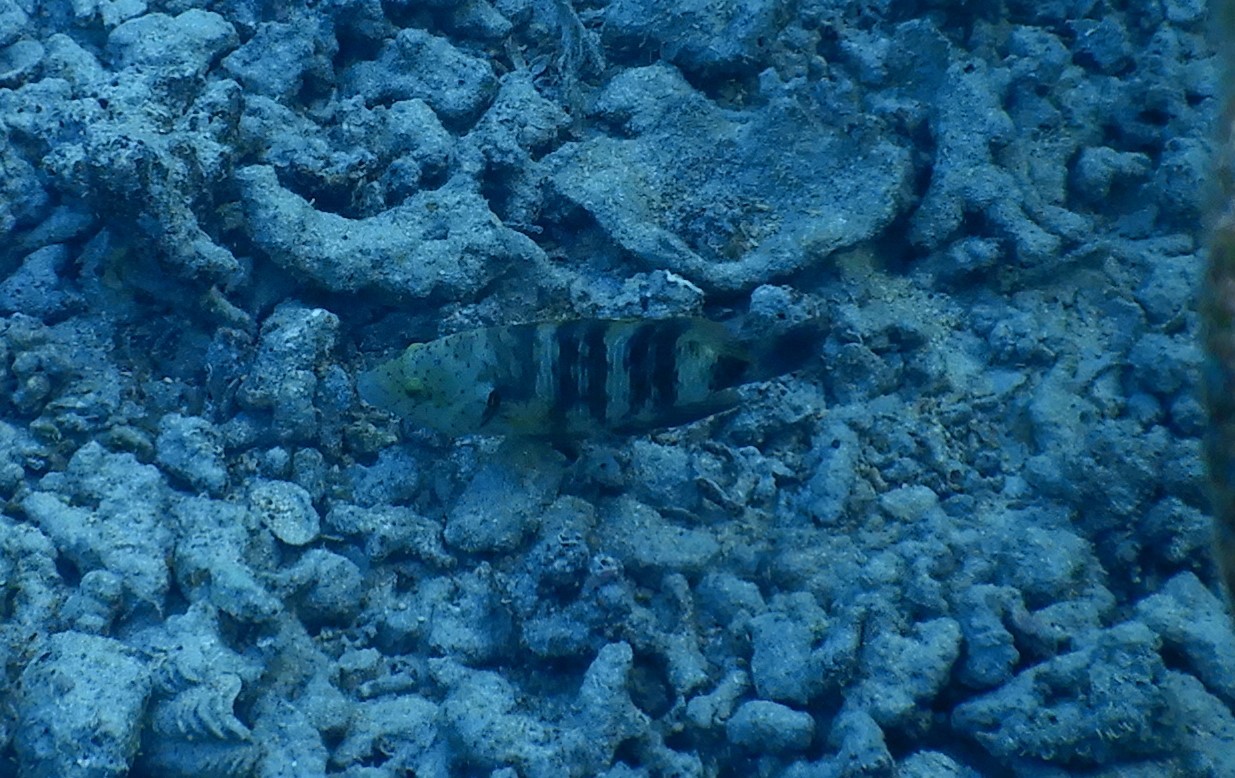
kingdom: Animalia
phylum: Chordata
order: Perciformes
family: Labridae
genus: Cheilinus
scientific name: Cheilinus lunulatus
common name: Broomtail wrasse
